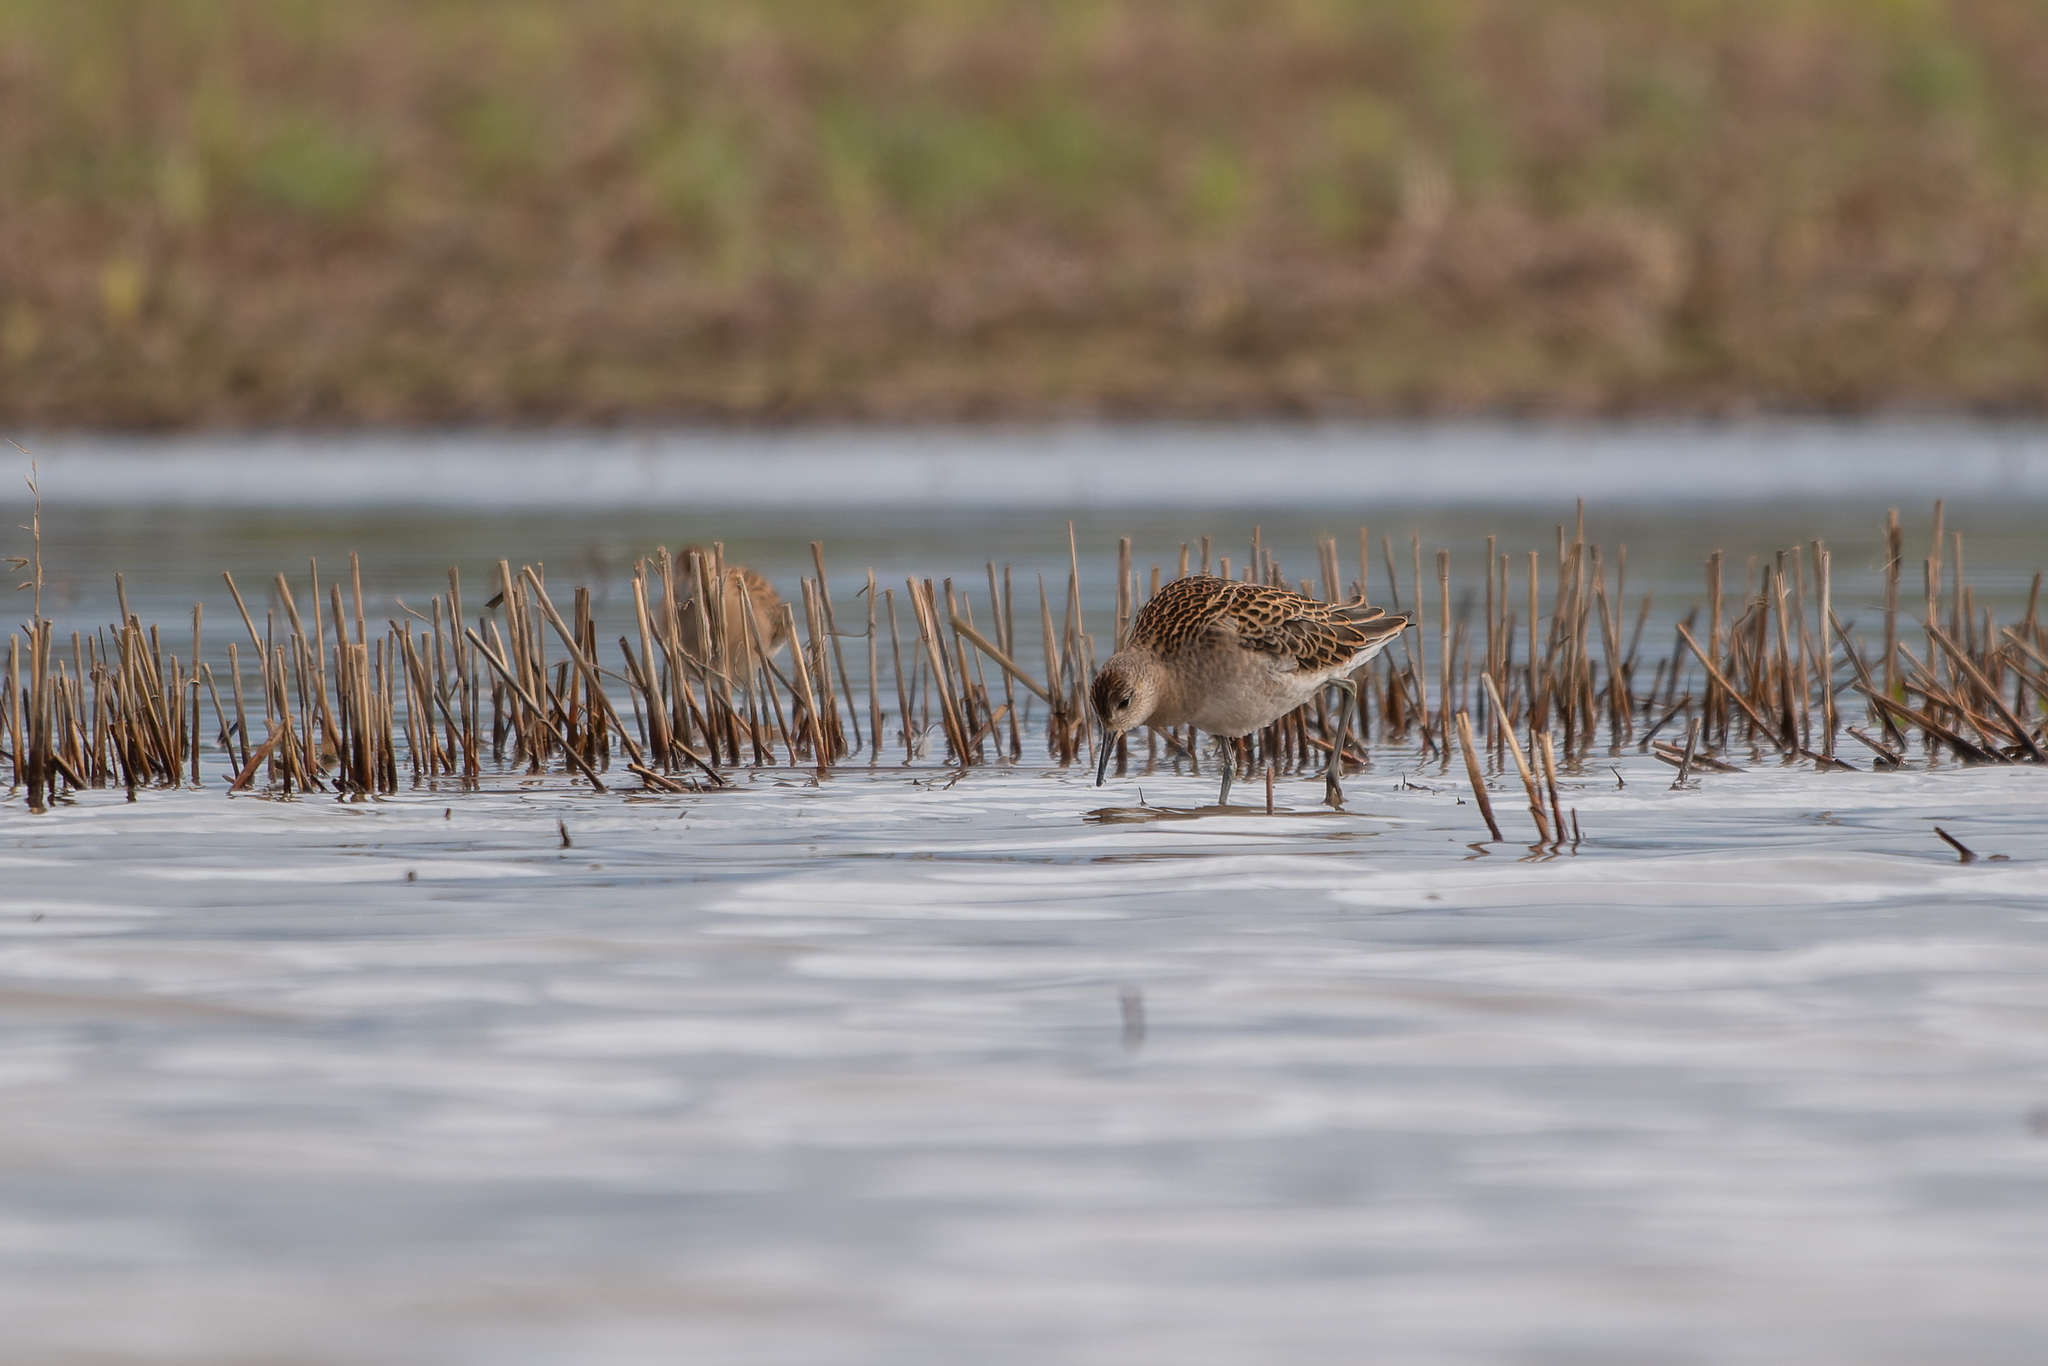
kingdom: Animalia
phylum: Chordata
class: Aves
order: Charadriiformes
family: Scolopacidae
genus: Calidris
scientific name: Calidris pugnax
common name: Ruff
